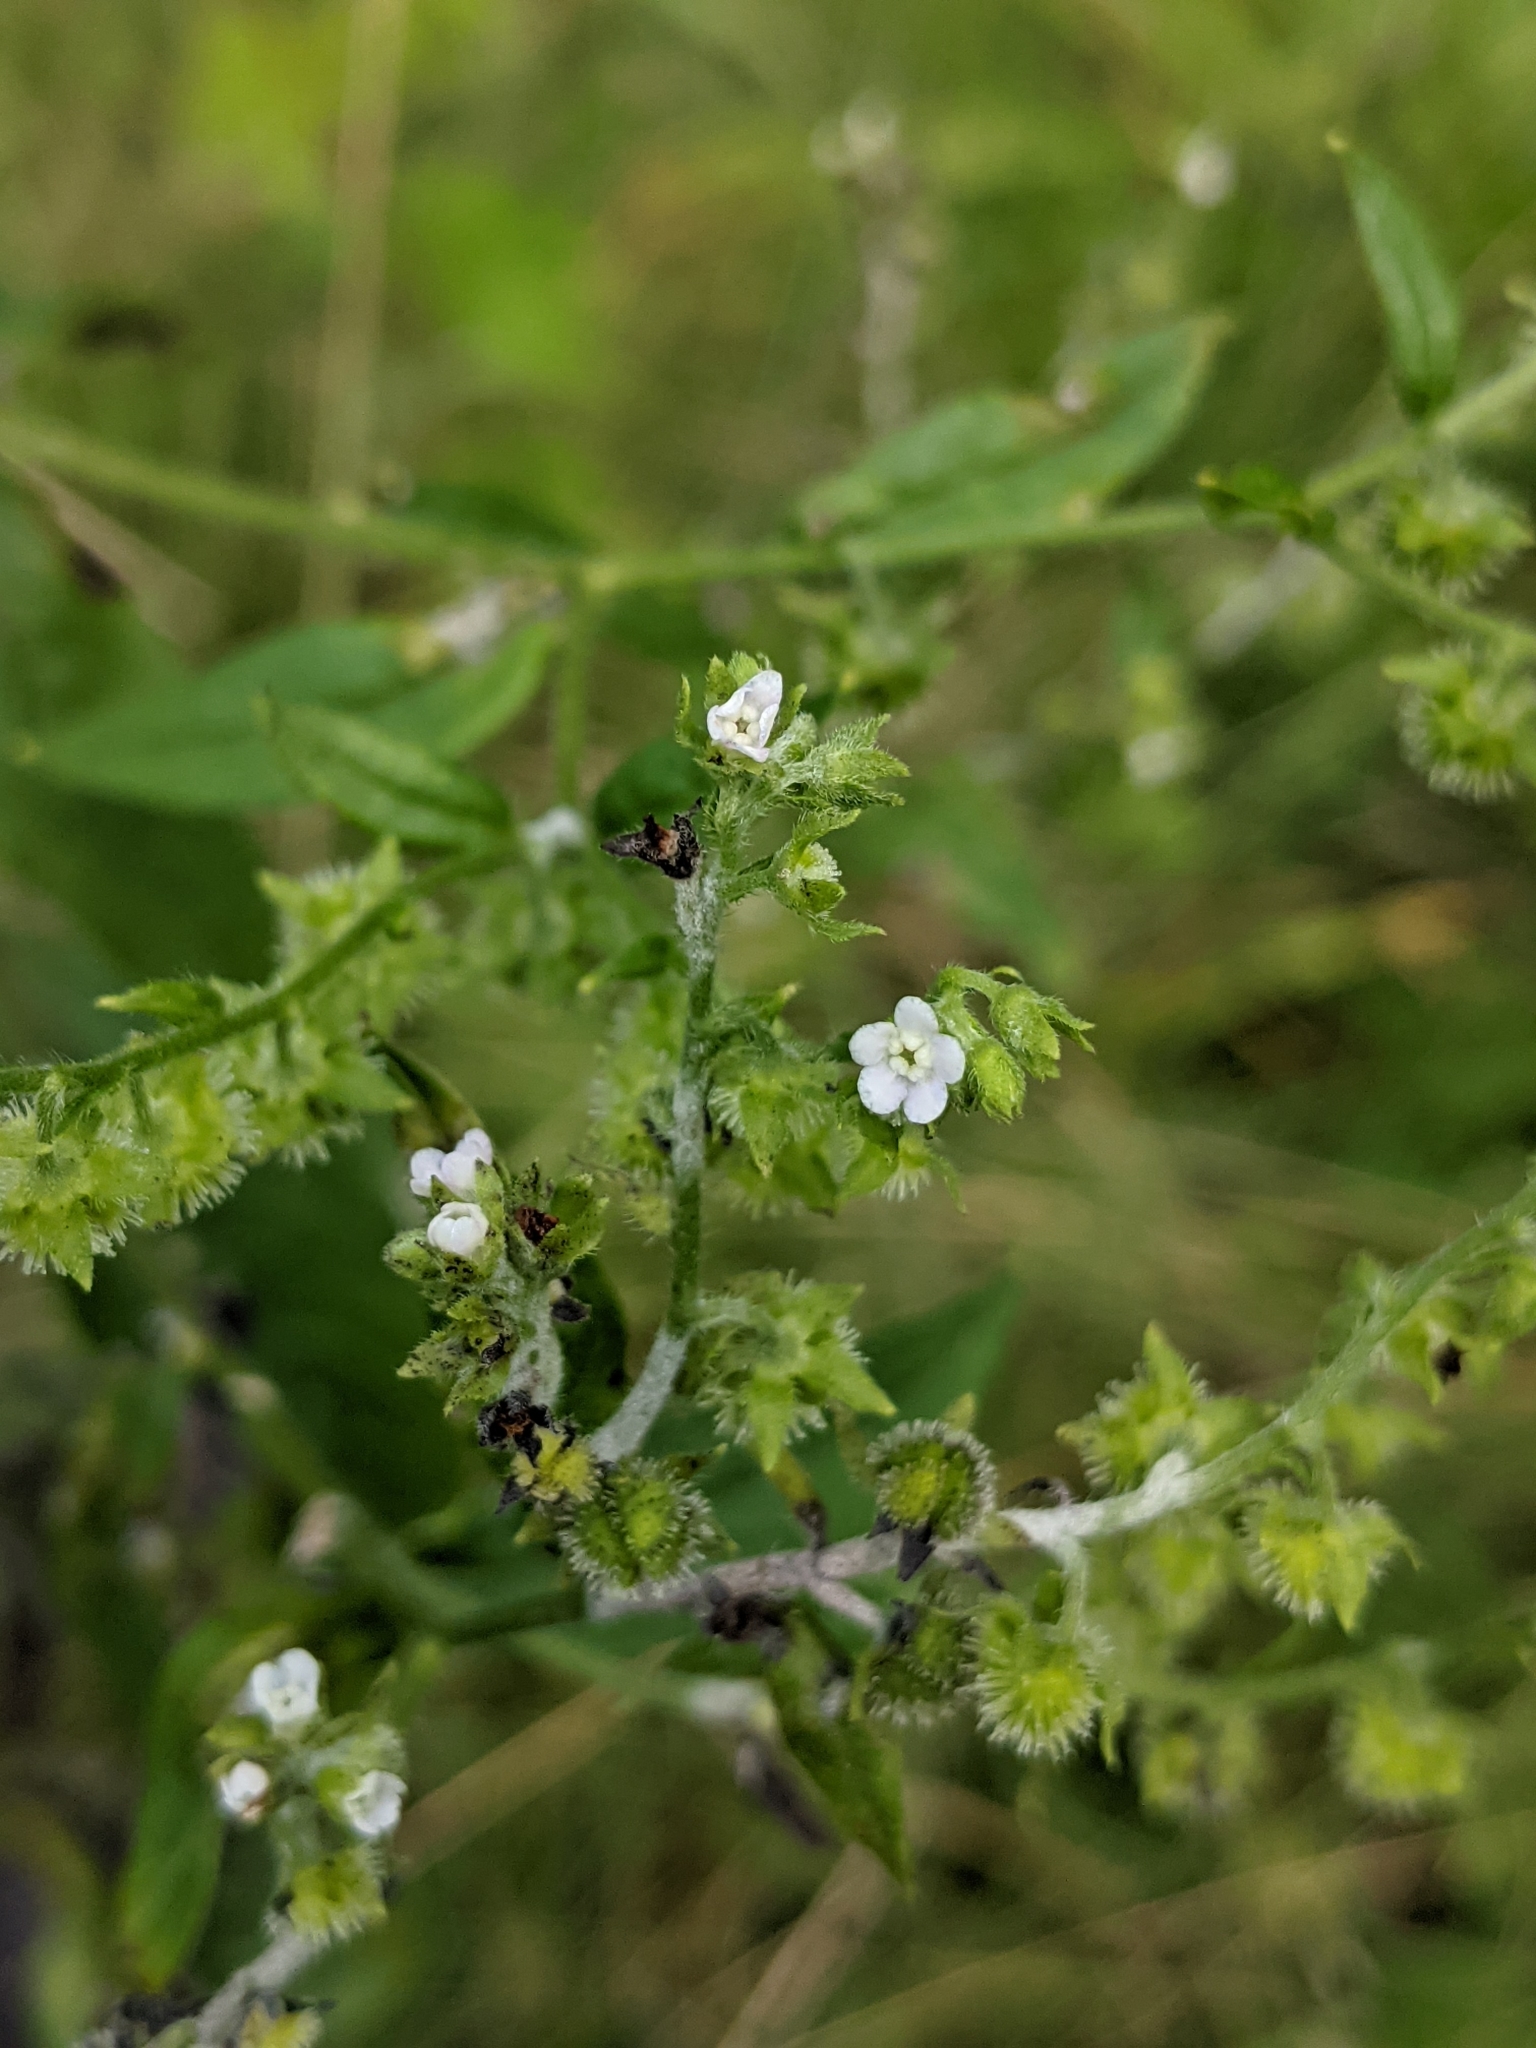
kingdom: Plantae
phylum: Tracheophyta
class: Magnoliopsida
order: Boraginales
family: Boraginaceae
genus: Hackelia
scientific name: Hackelia virginiana
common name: Beggar's-lice
